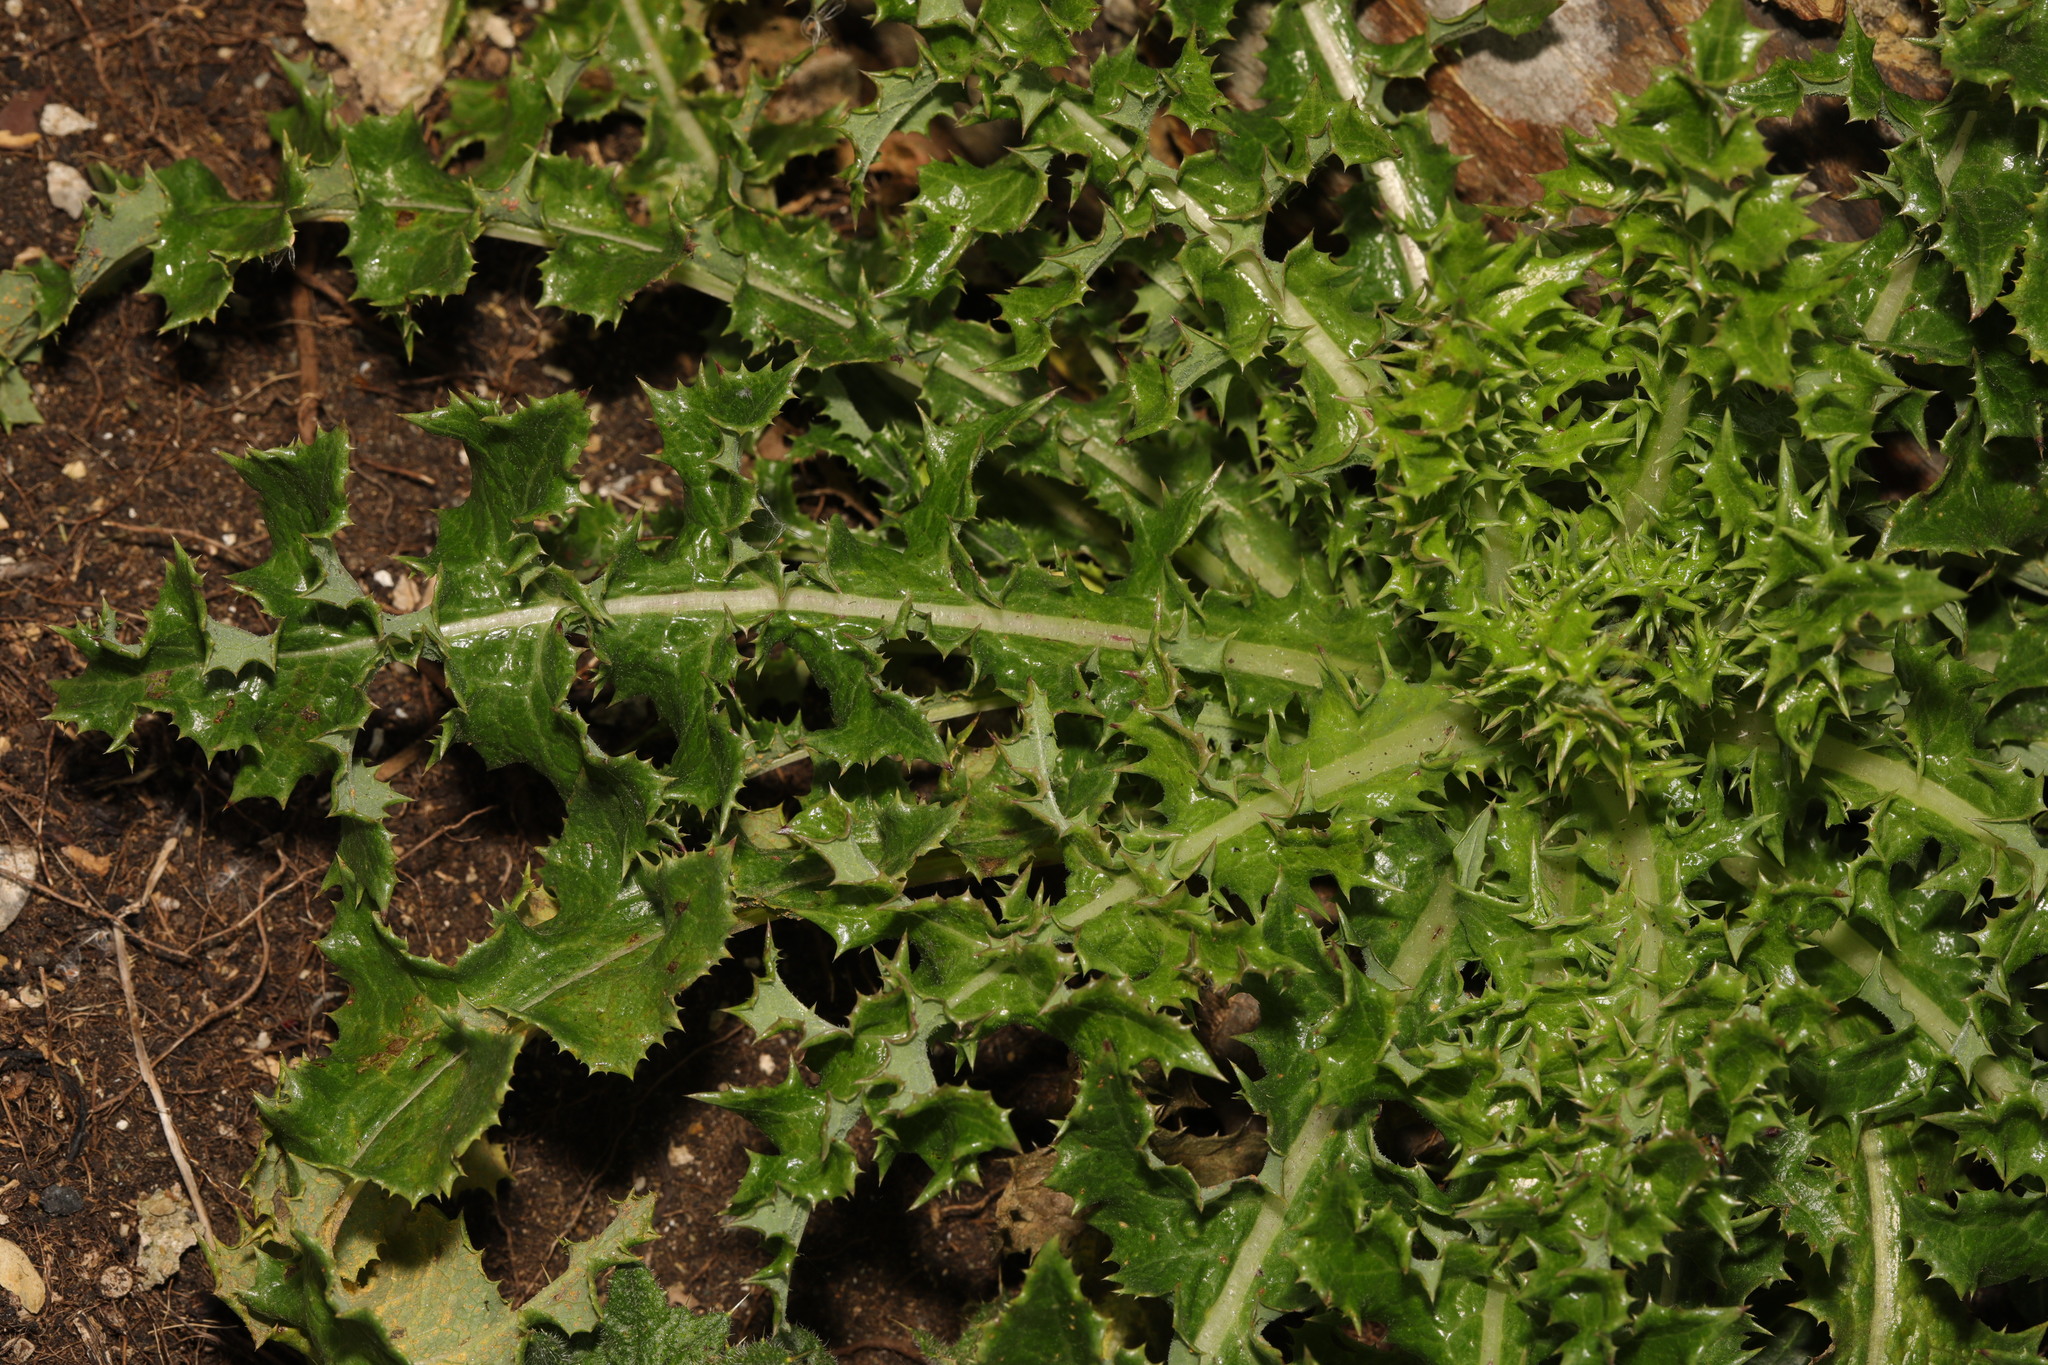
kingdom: Plantae
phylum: Tracheophyta
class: Magnoliopsida
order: Asterales
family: Asteraceae
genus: Sonchus
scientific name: Sonchus asper
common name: Prickly sow-thistle
